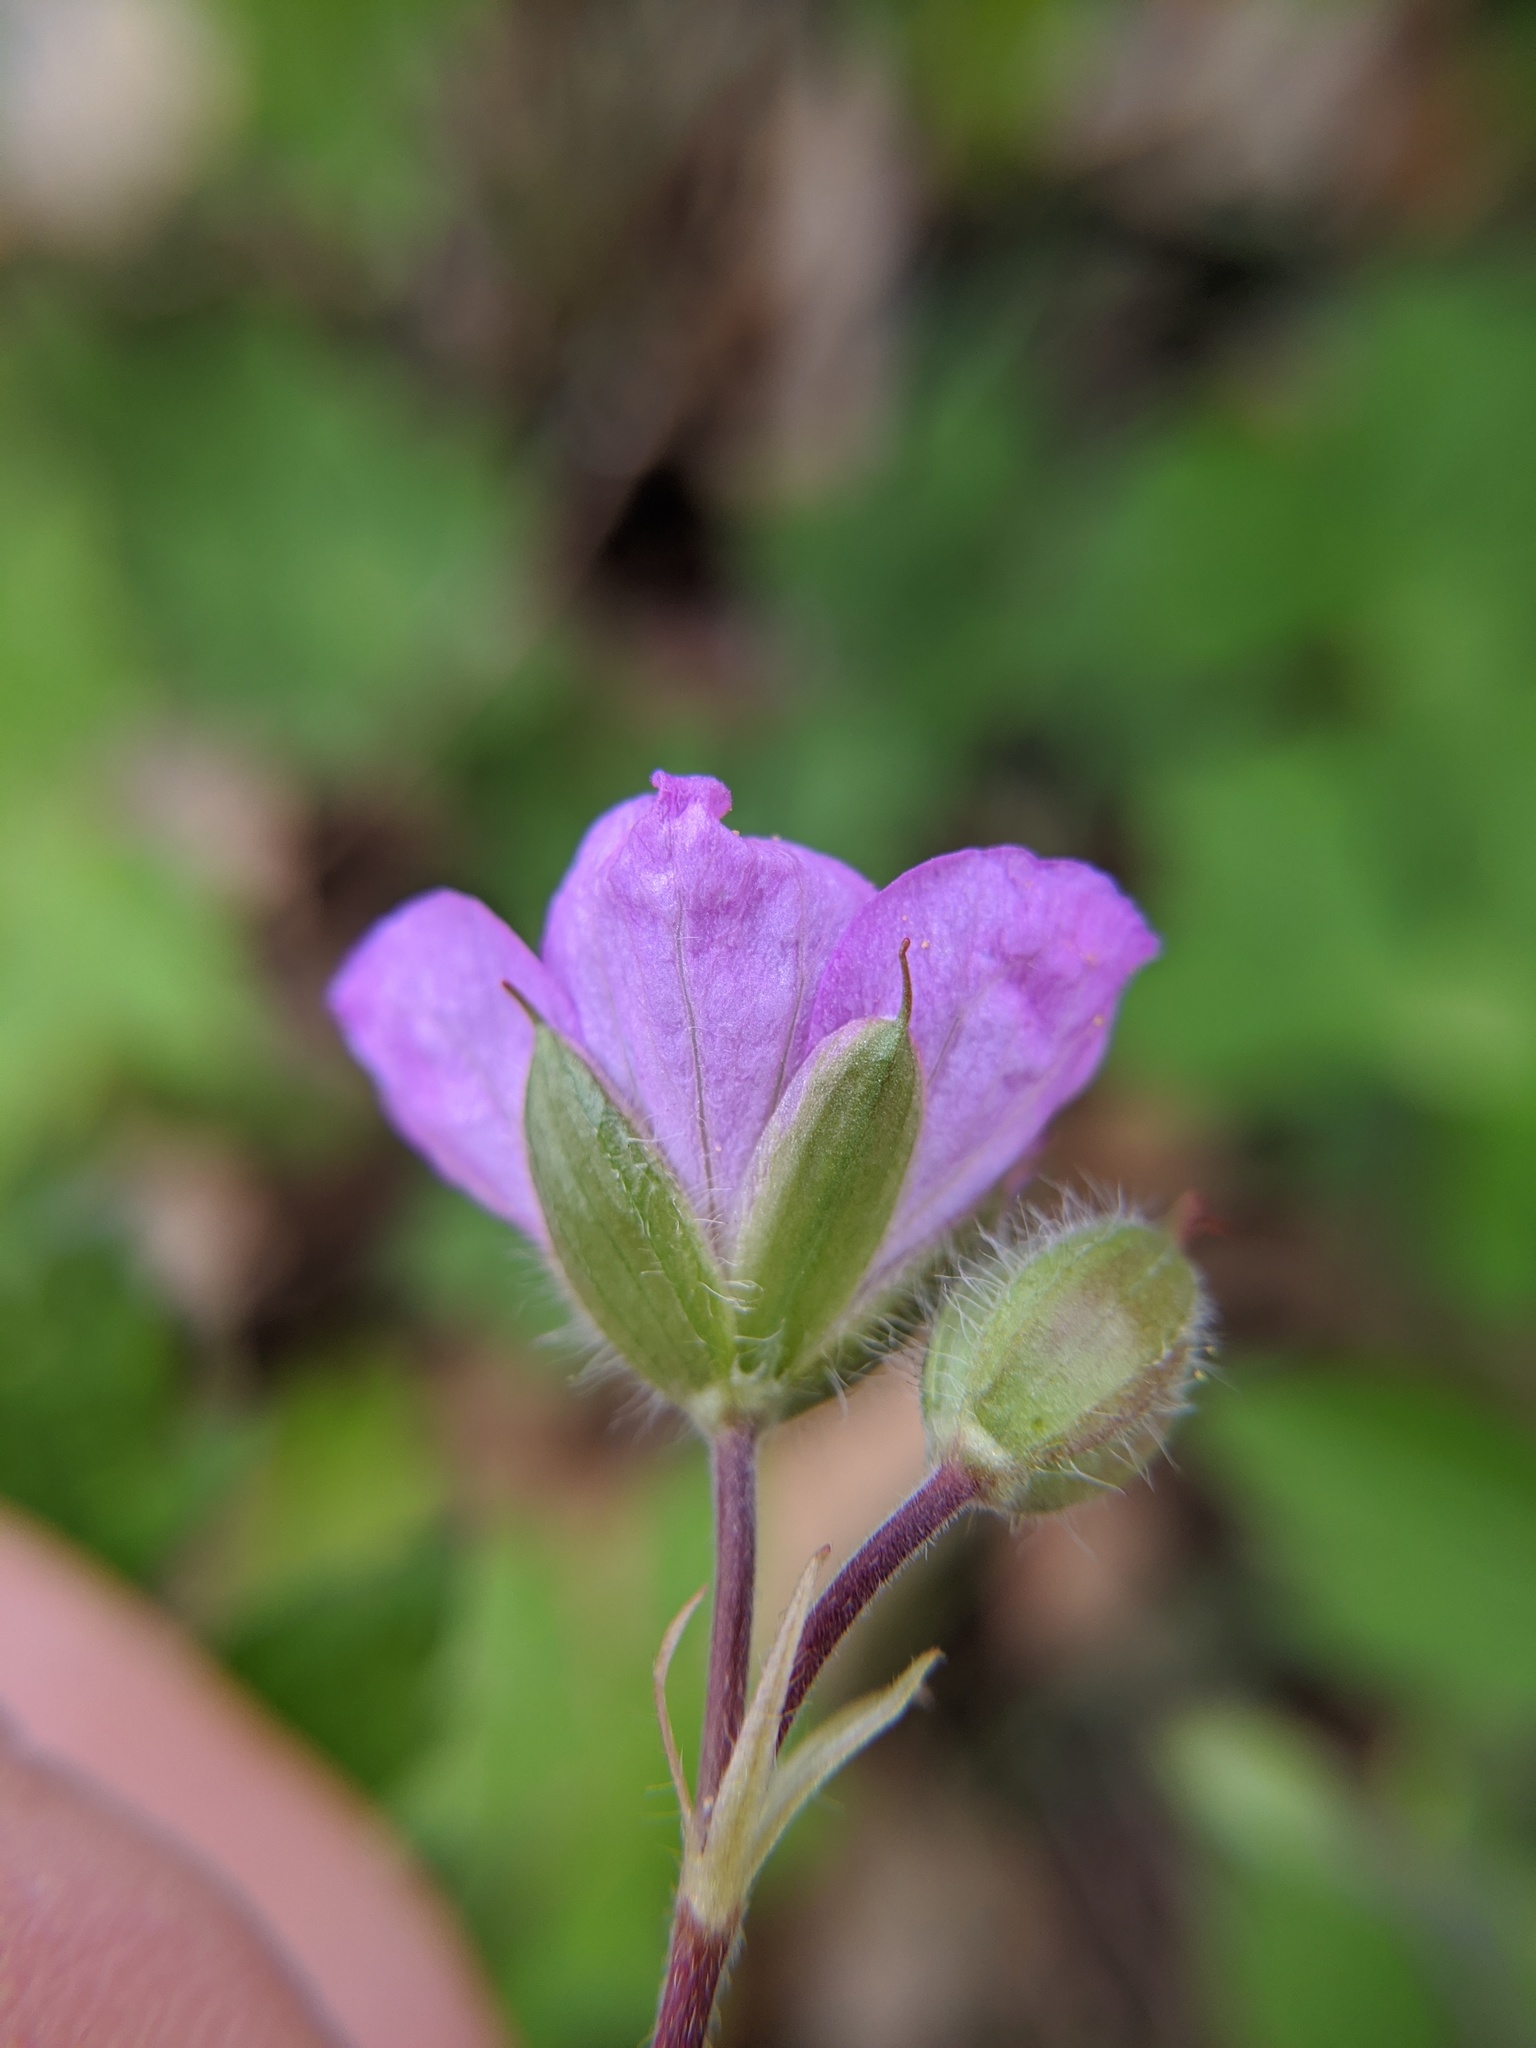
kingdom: Plantae
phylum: Tracheophyta
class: Magnoliopsida
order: Geraniales
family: Geraniaceae
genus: Geranium
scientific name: Geranium maculatum
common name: Spotted geranium
